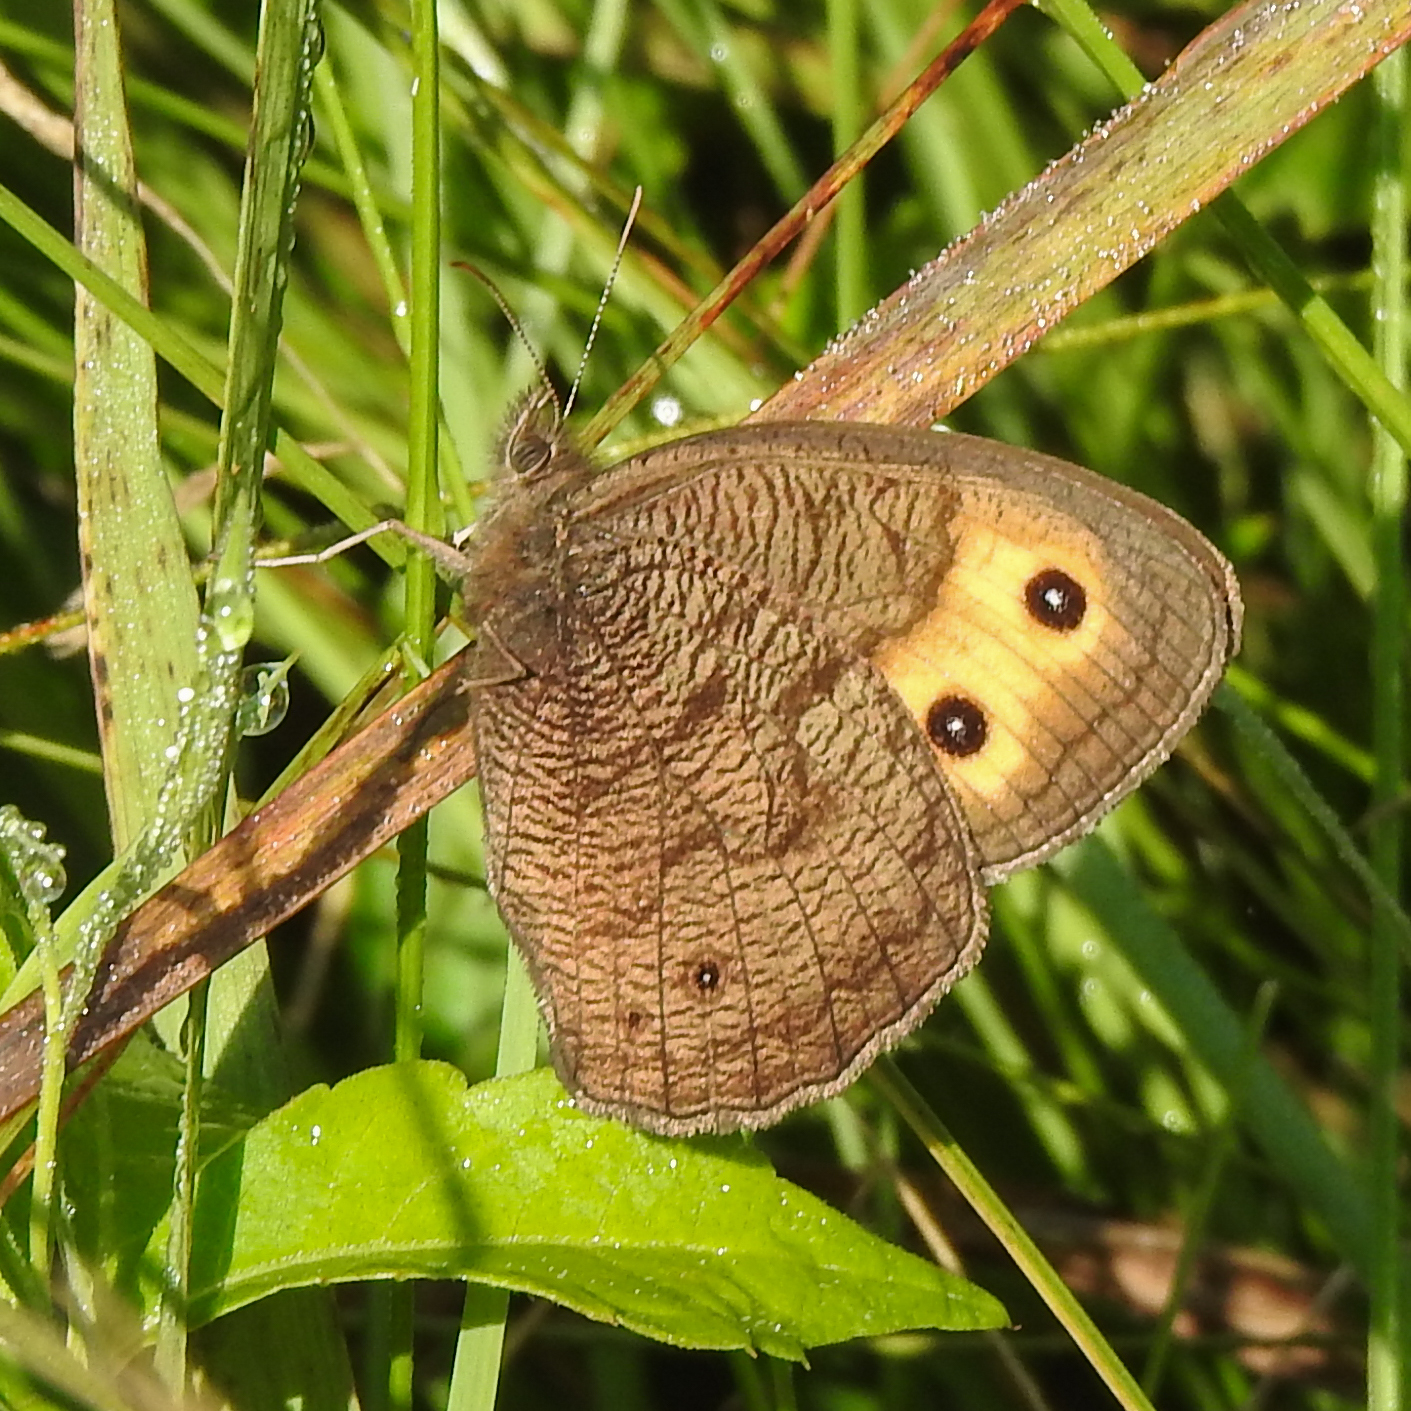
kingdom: Animalia
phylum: Arthropoda
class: Insecta
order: Lepidoptera
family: Nymphalidae
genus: Cercyonis
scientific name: Cercyonis pegala
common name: Common wood-nymph
